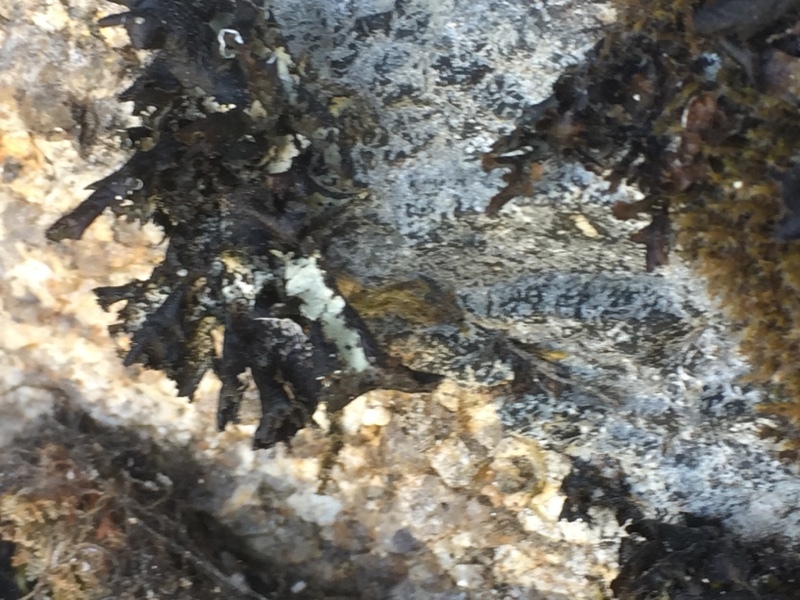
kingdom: Fungi
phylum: Ascomycota
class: Lecanoromycetes
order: Lecanorales
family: Parmeliaceae
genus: Platismatia
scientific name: Platismatia glauca
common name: Varied rag lichen
